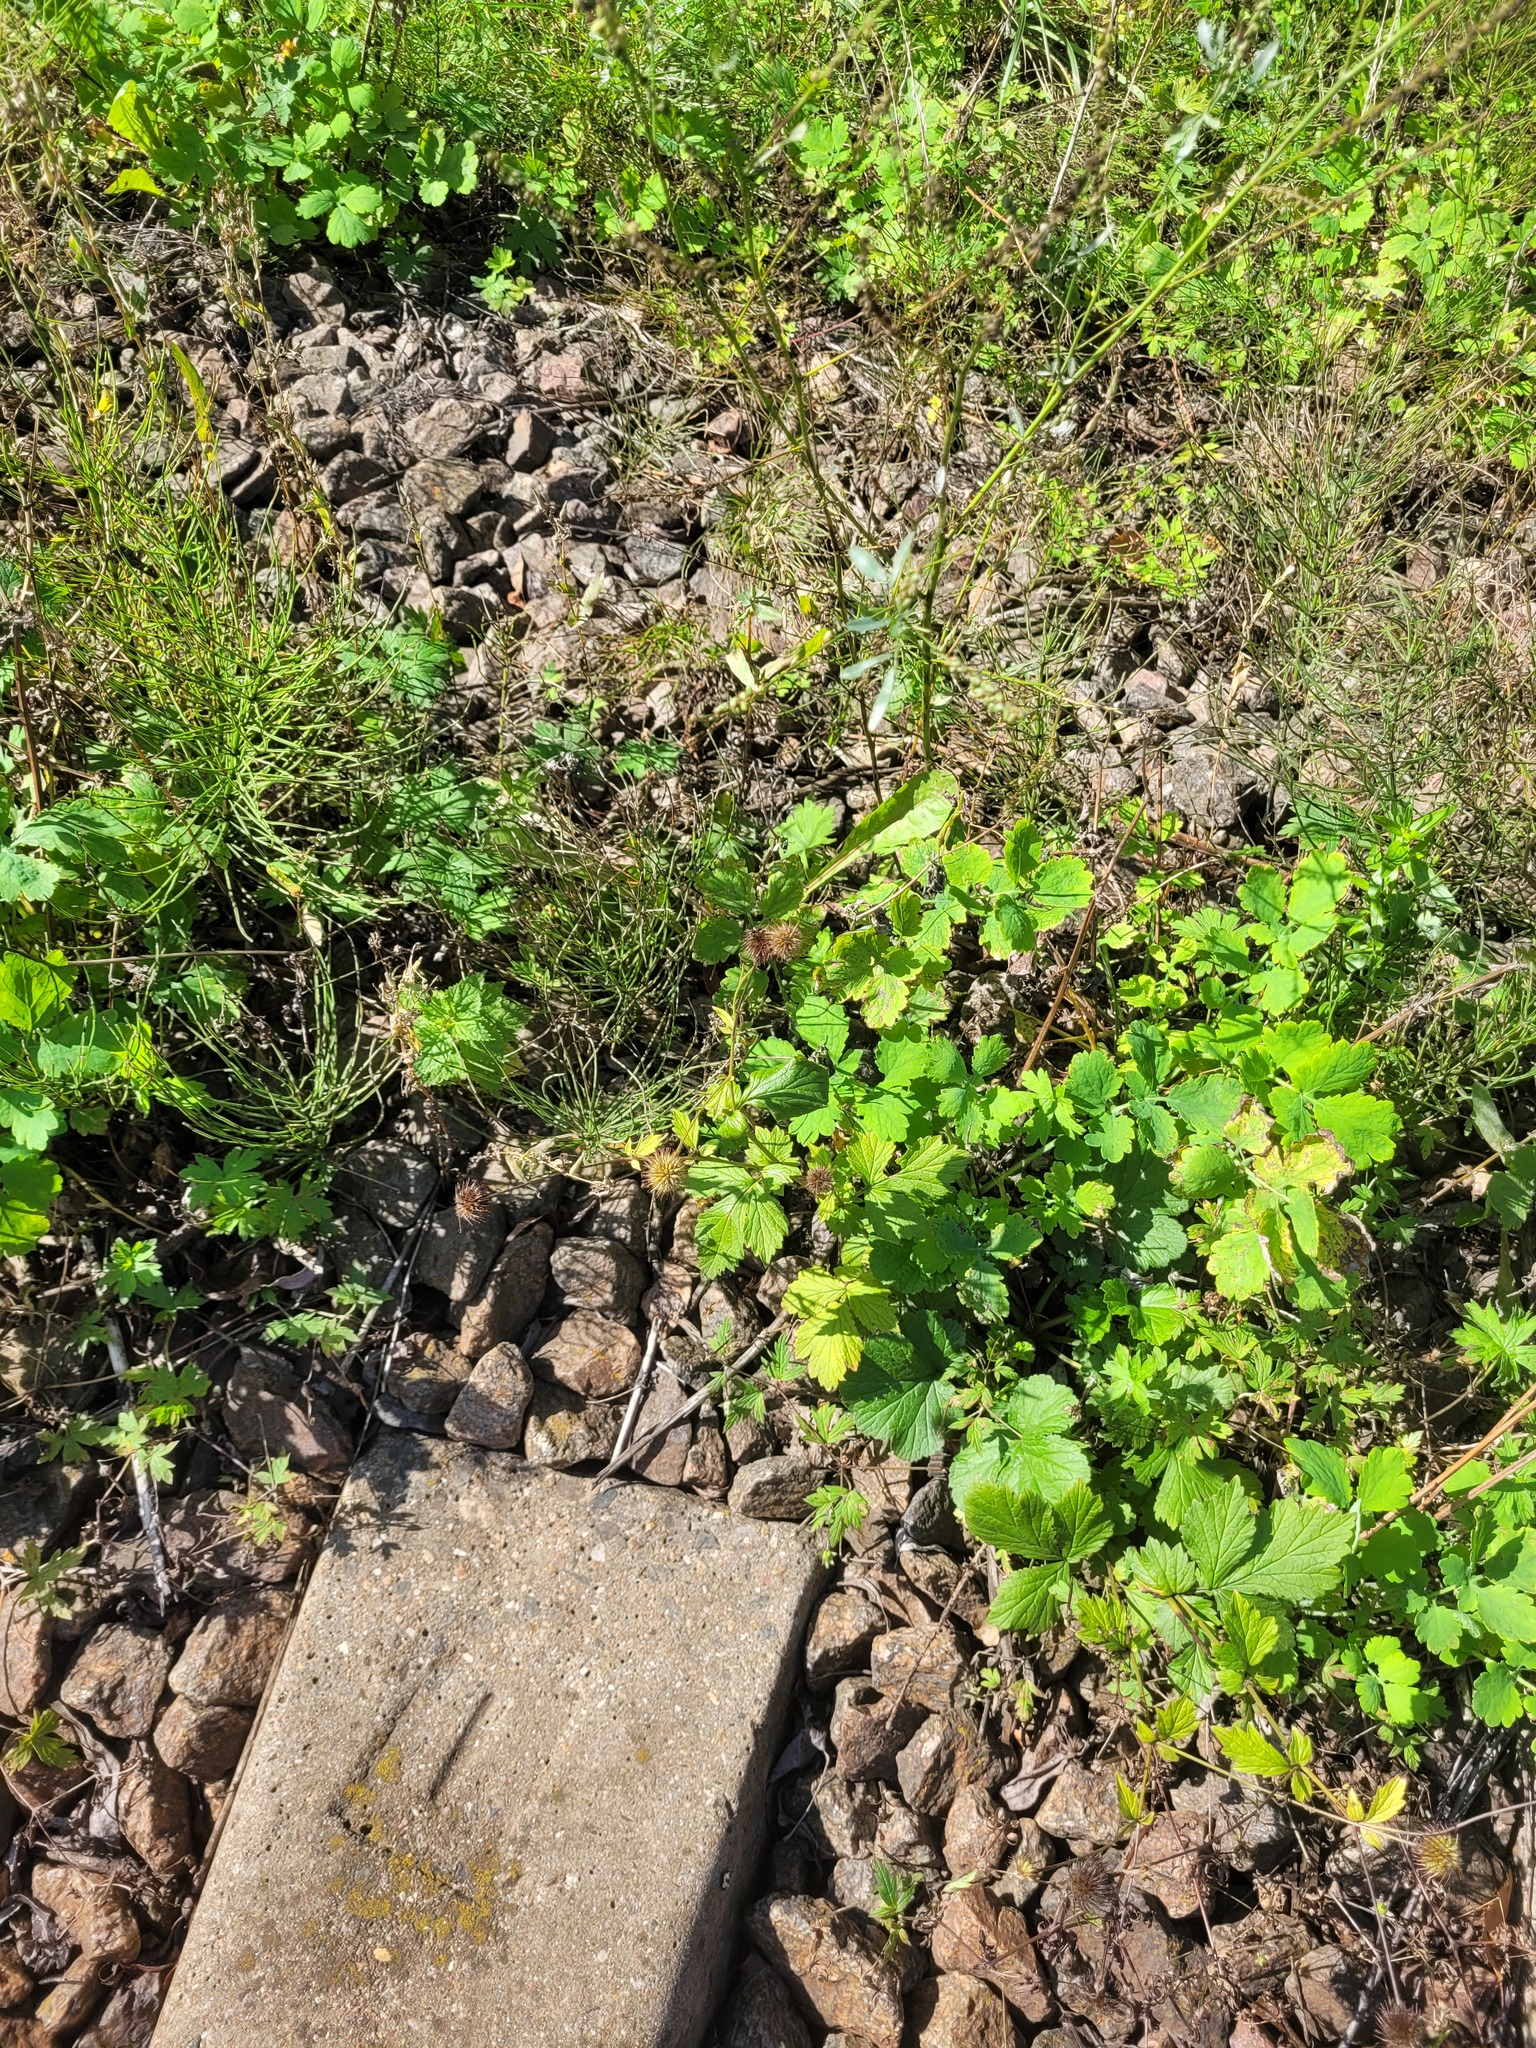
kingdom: Plantae
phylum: Tracheophyta
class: Magnoliopsida
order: Rosales
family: Rosaceae
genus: Geum
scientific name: Geum urbanum
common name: Wood avens
